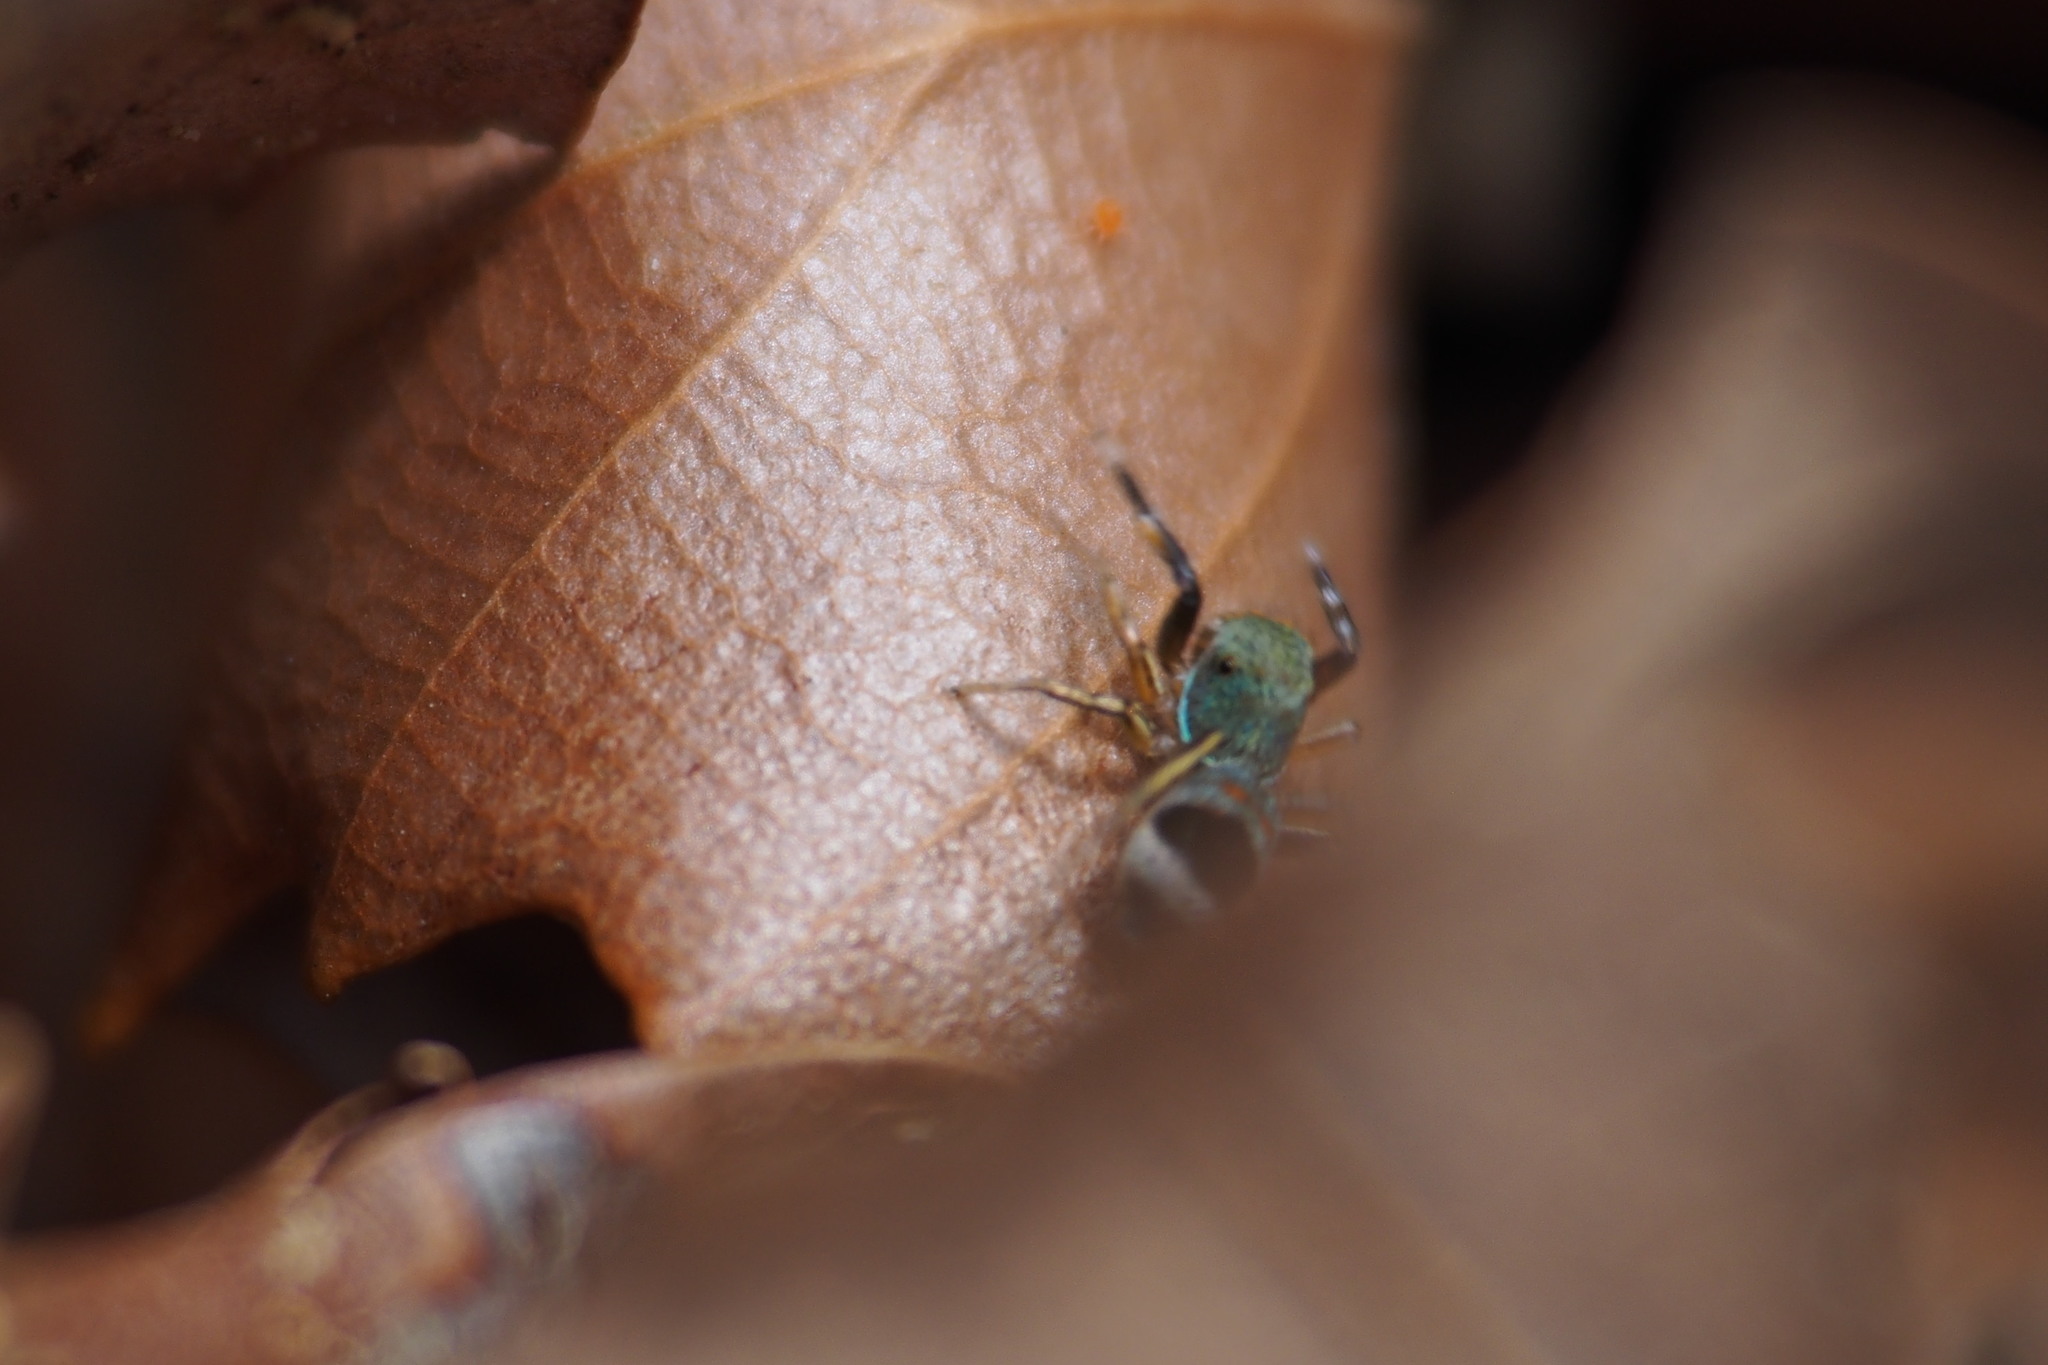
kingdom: Animalia
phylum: Arthropoda
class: Arachnida
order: Araneae
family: Salticidae
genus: Siler
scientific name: Siler cupreus
